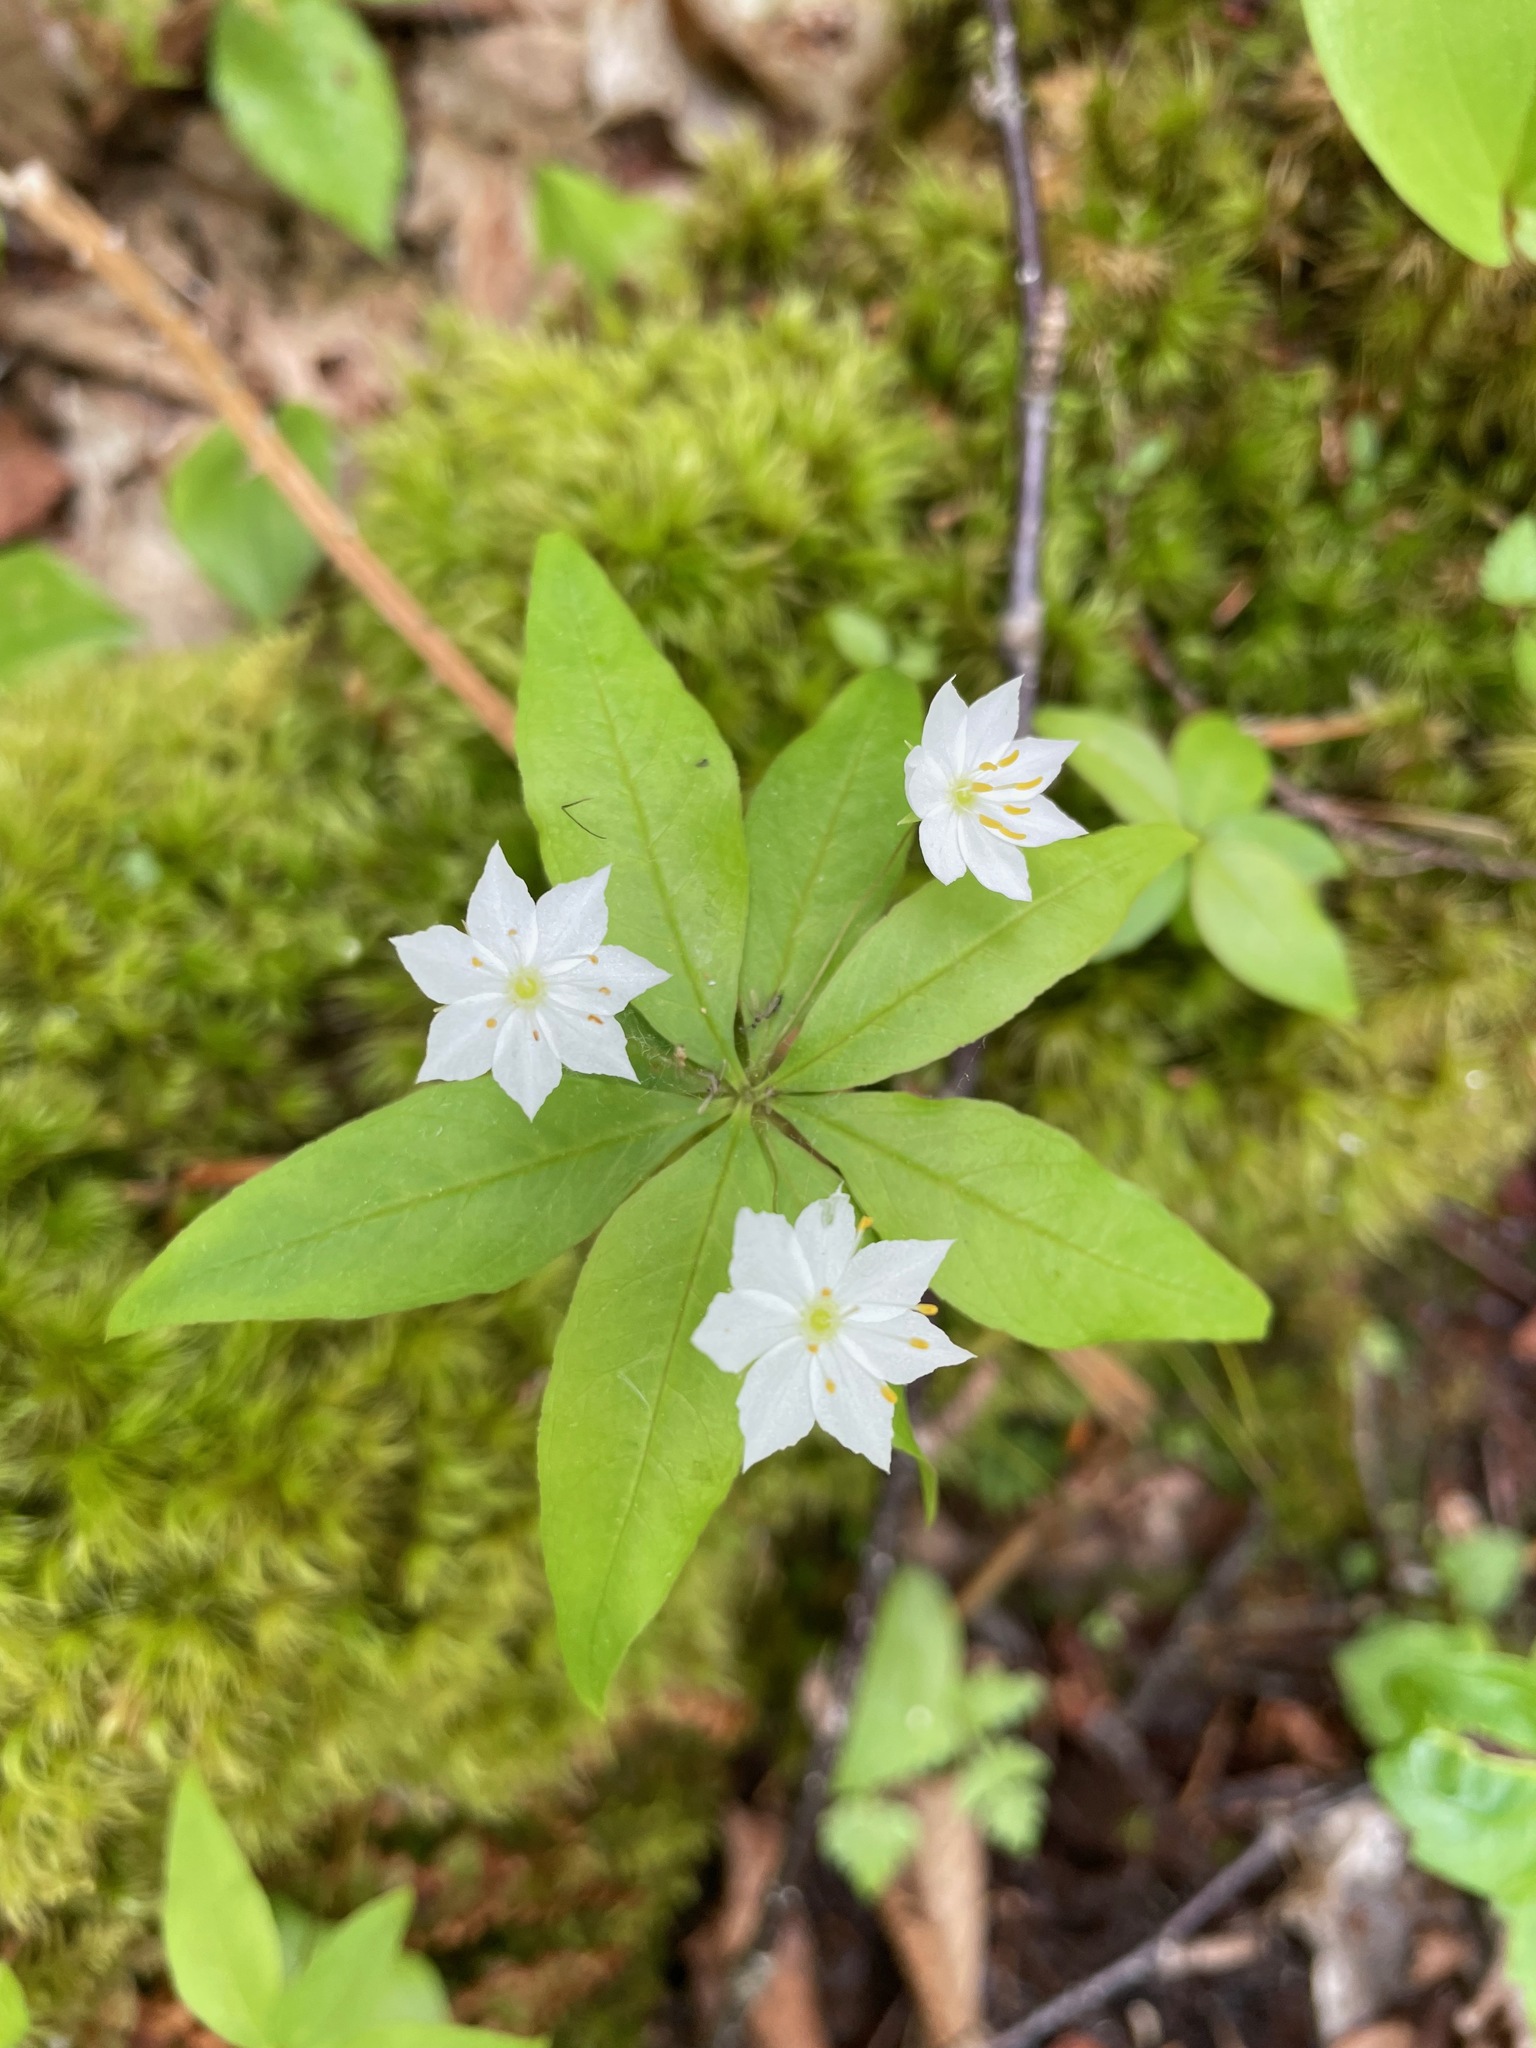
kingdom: Plantae
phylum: Tracheophyta
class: Magnoliopsida
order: Ericales
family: Primulaceae
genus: Lysimachia
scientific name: Lysimachia borealis
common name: American starflower
